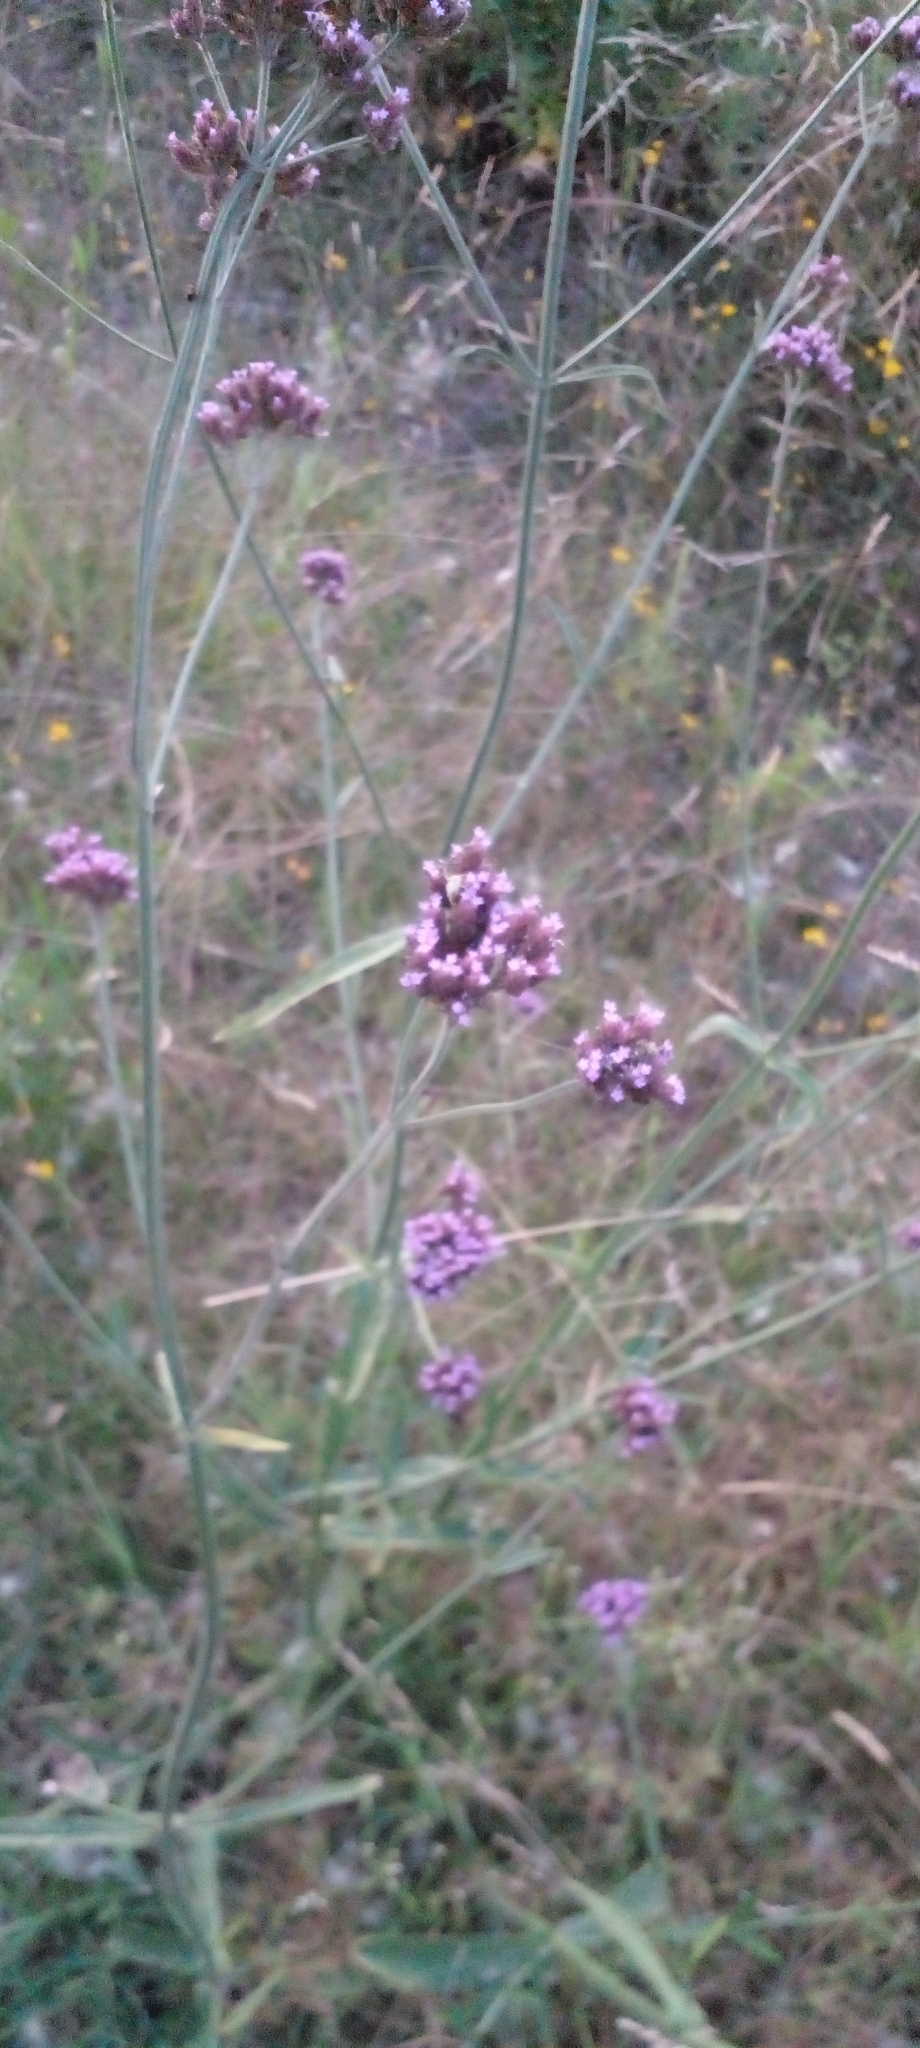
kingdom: Plantae
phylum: Tracheophyta
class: Magnoliopsida
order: Lamiales
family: Verbenaceae
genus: Verbena
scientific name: Verbena bonariensis
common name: Purpletop vervain
